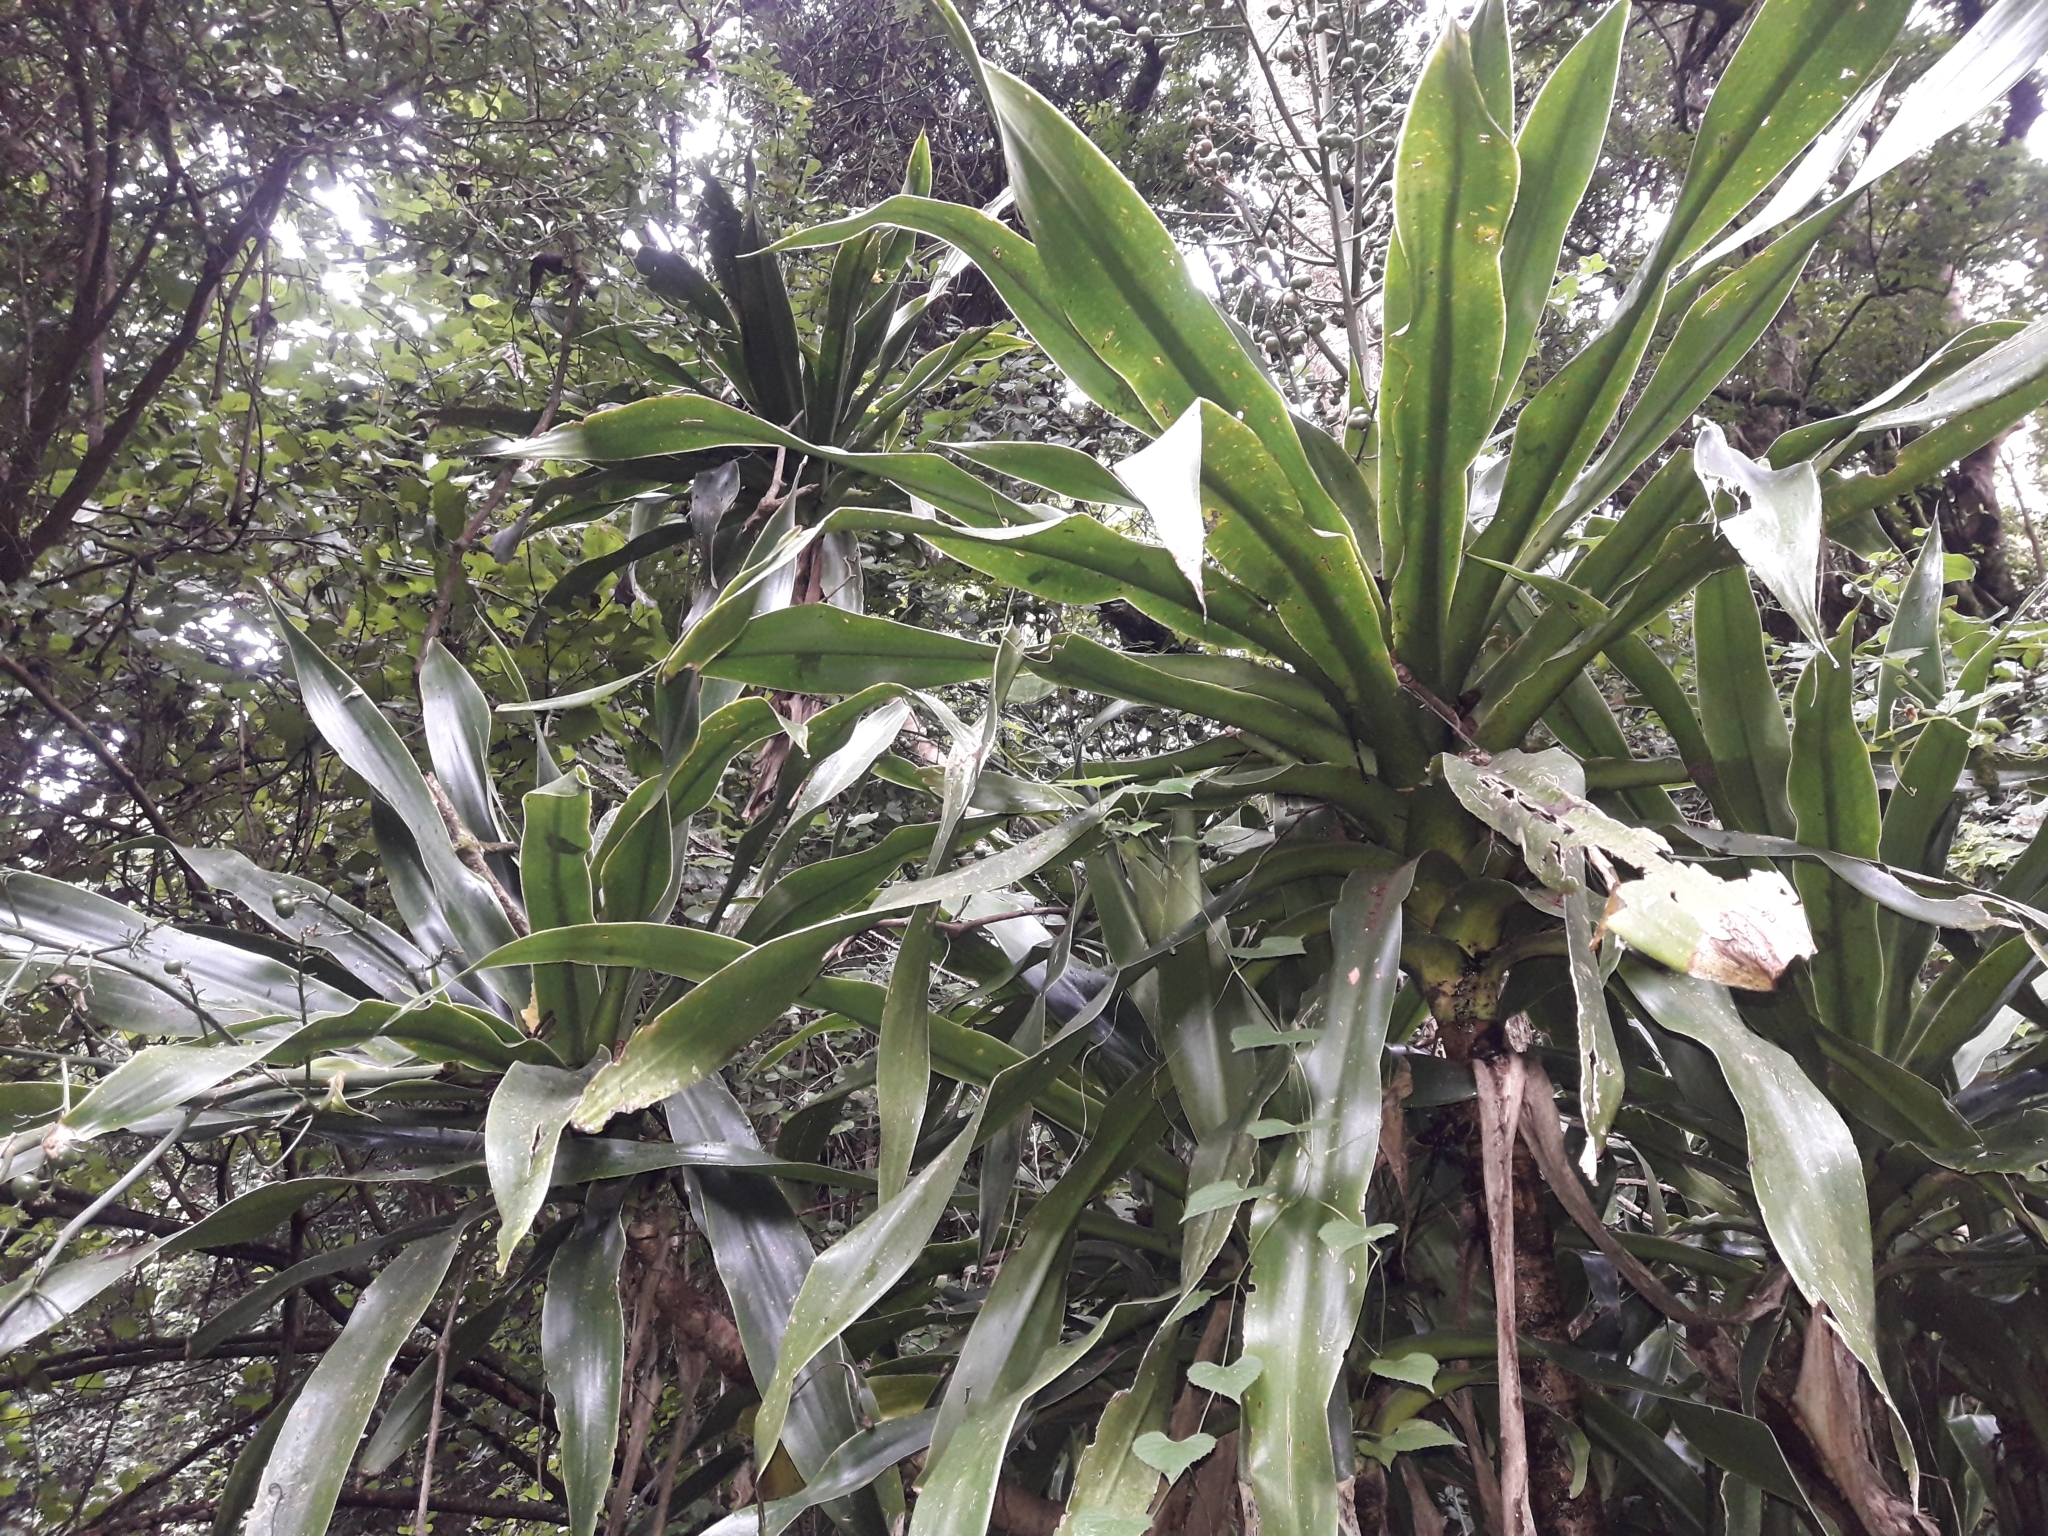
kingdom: Plantae
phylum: Tracheophyta
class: Liliopsida
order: Asparagales
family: Asparagaceae
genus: Dracaena
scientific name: Dracaena aletriformis
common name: Large-leaved dragon tree
